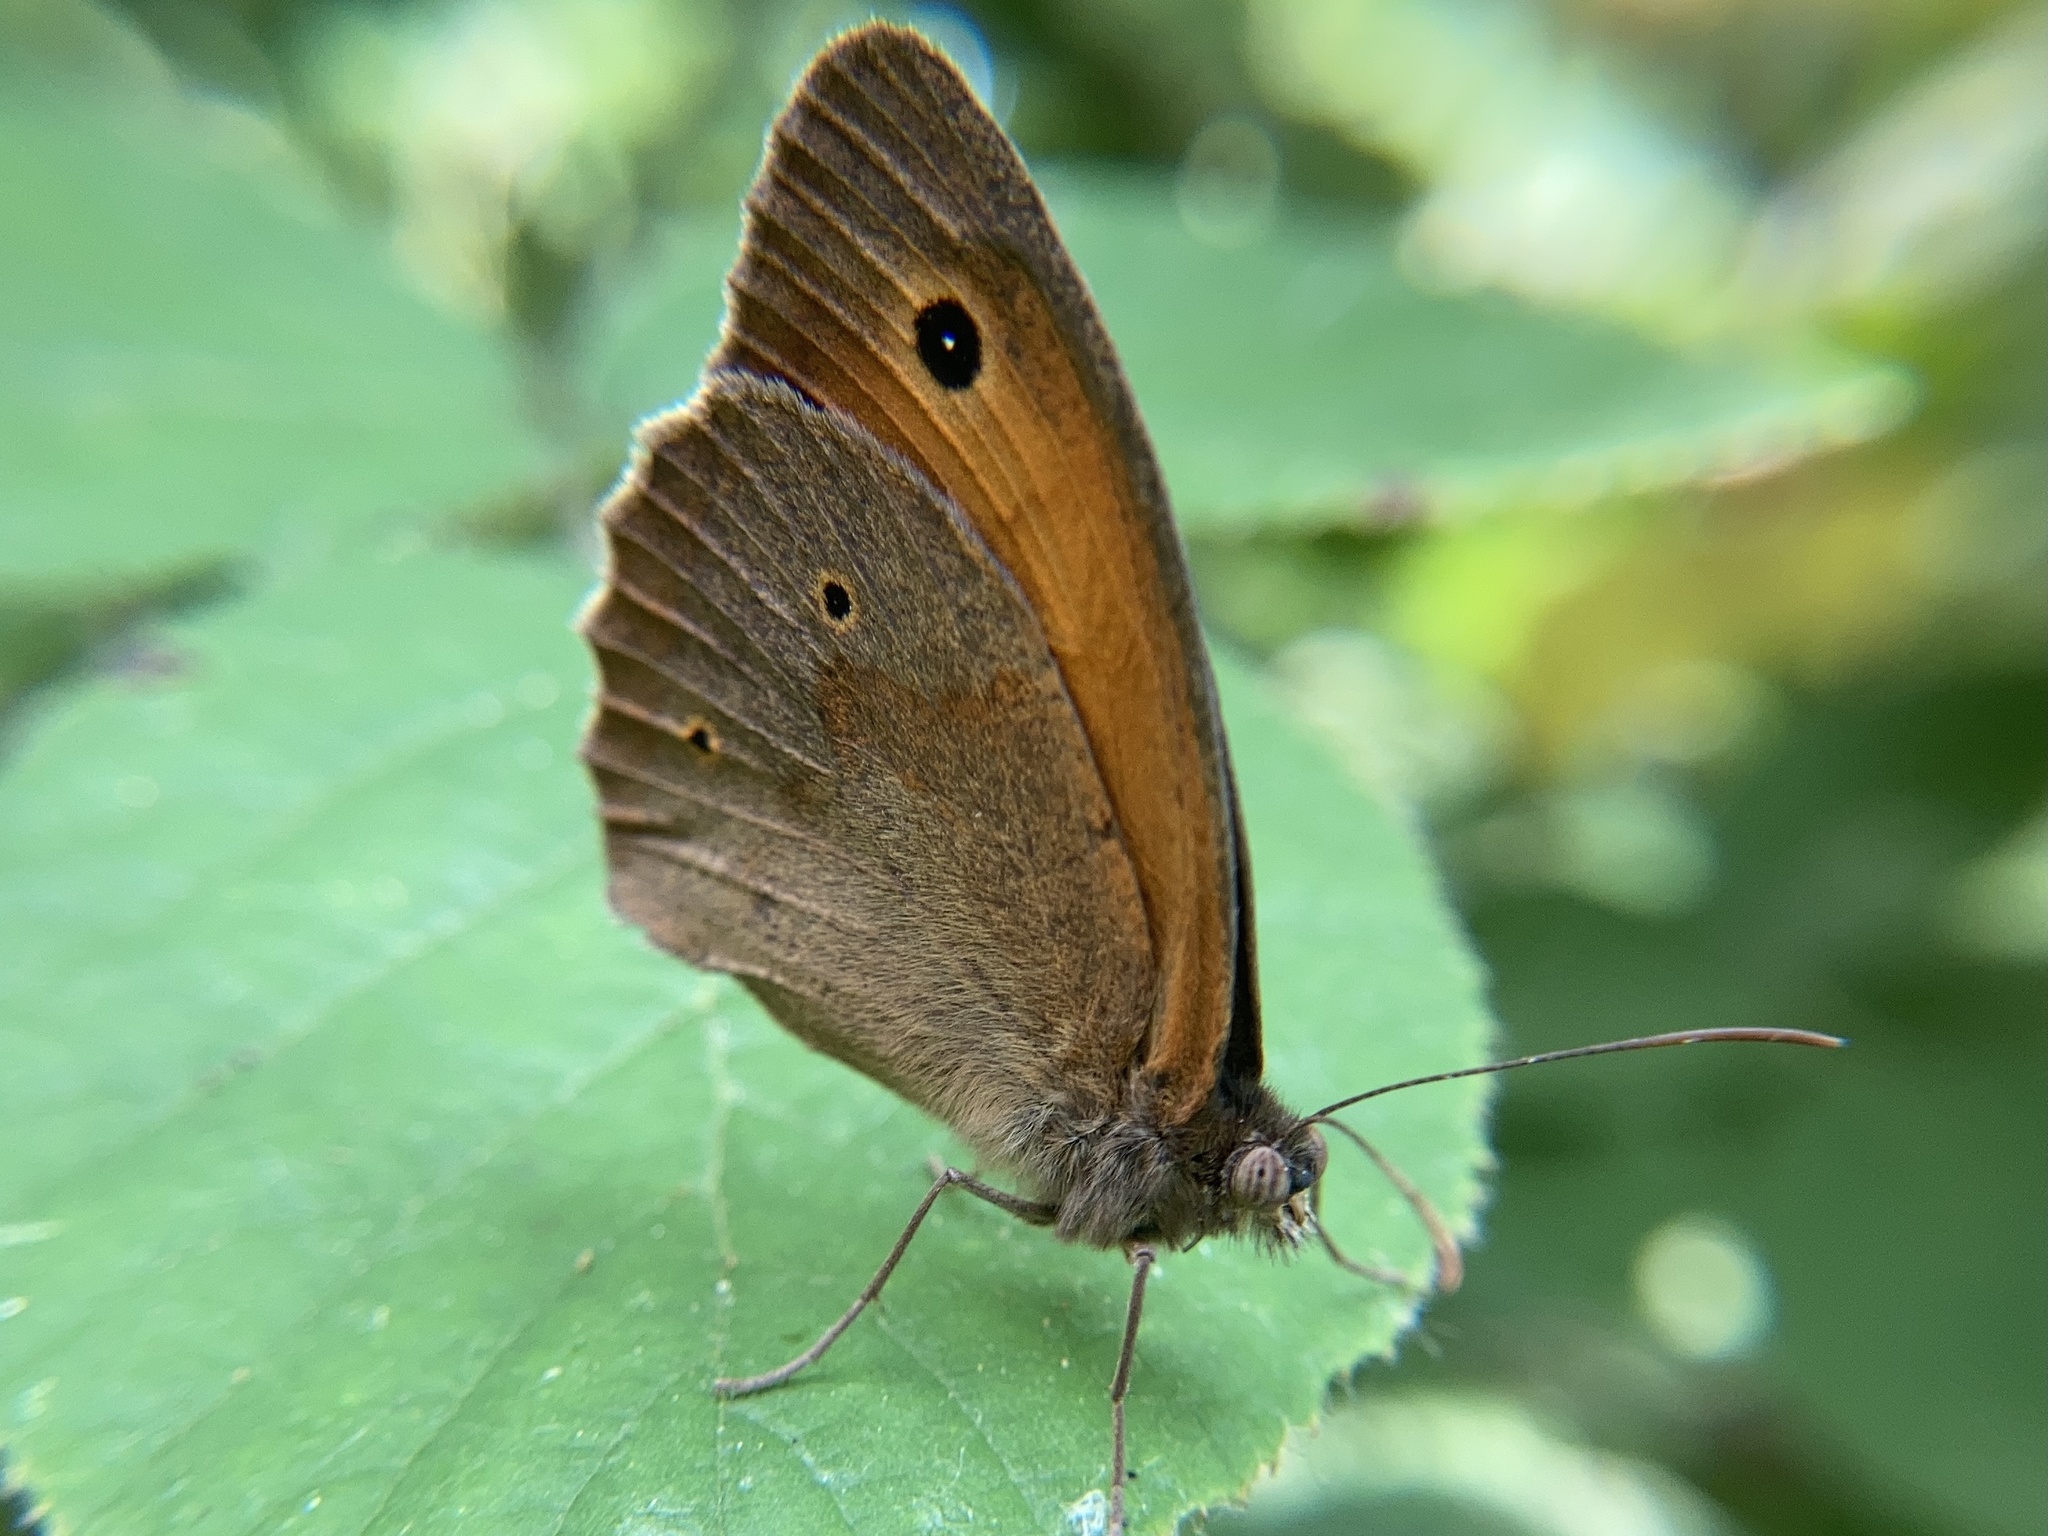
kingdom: Animalia
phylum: Arthropoda
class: Insecta
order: Lepidoptera
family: Nymphalidae
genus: Maniola
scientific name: Maniola jurtina
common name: Meadow brown
